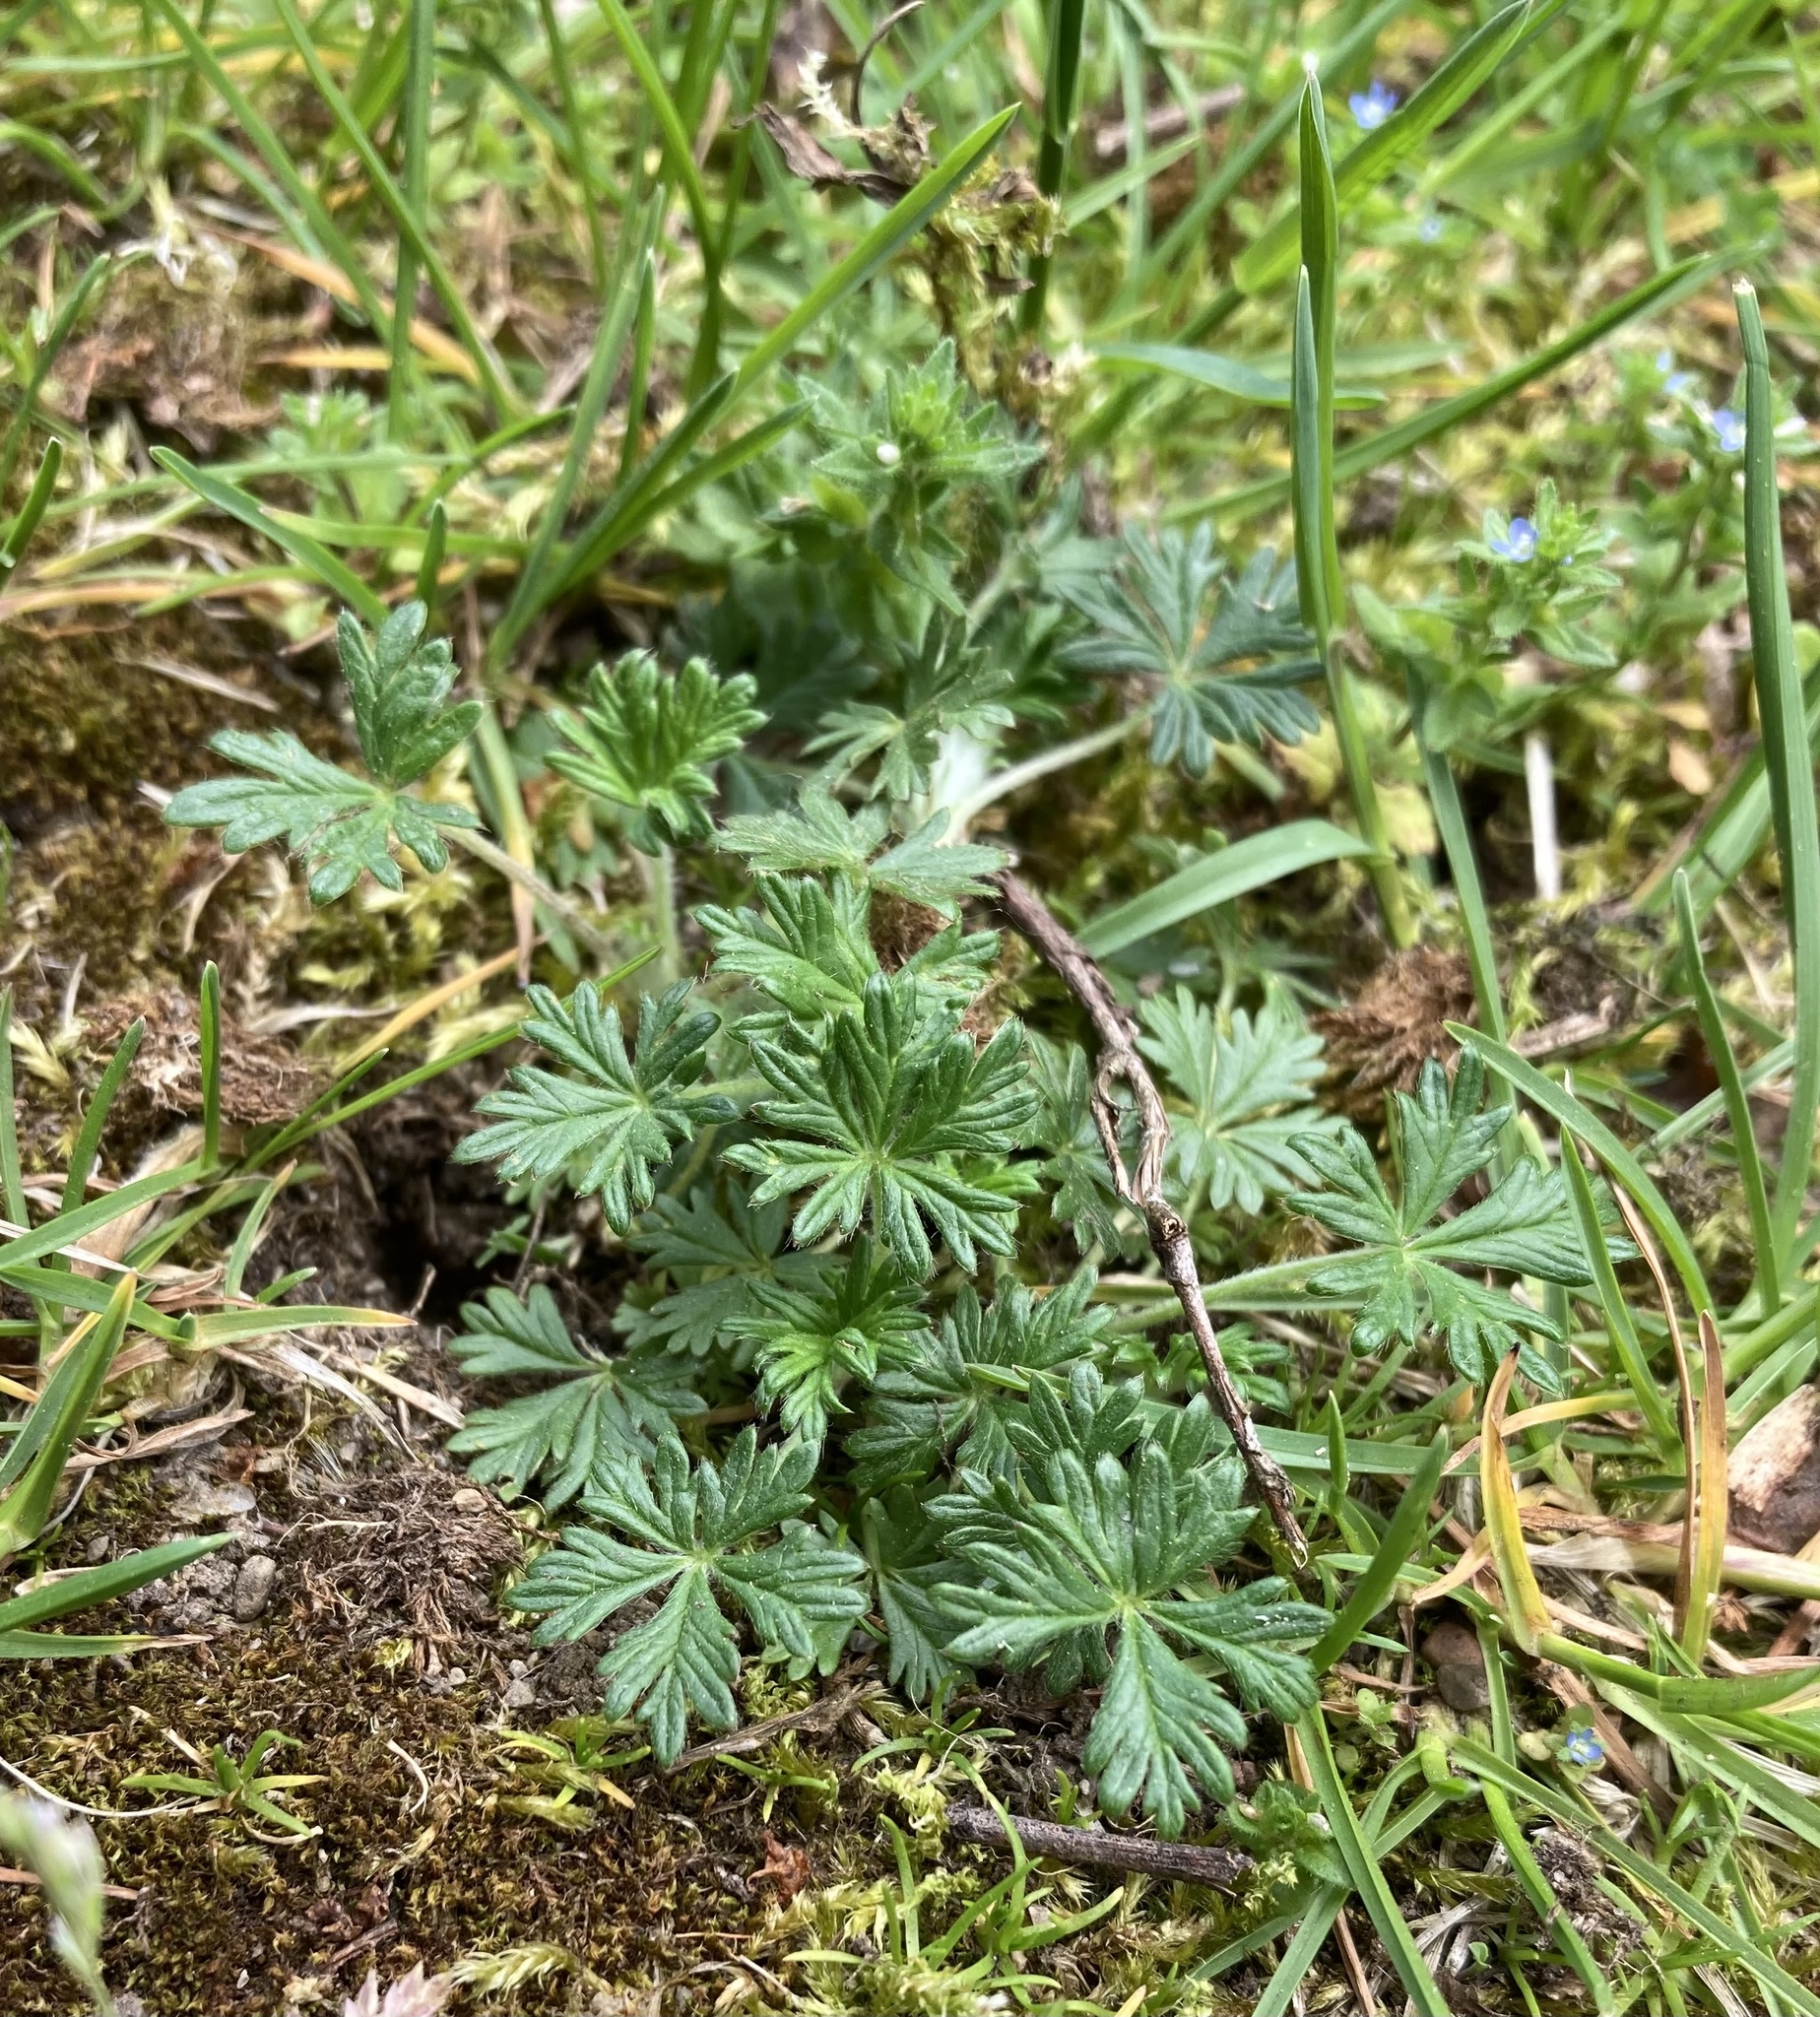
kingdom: Plantae
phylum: Tracheophyta
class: Magnoliopsida
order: Rosales
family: Rosaceae
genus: Potentilla
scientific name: Potentilla argentea
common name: Hoary cinquefoil
